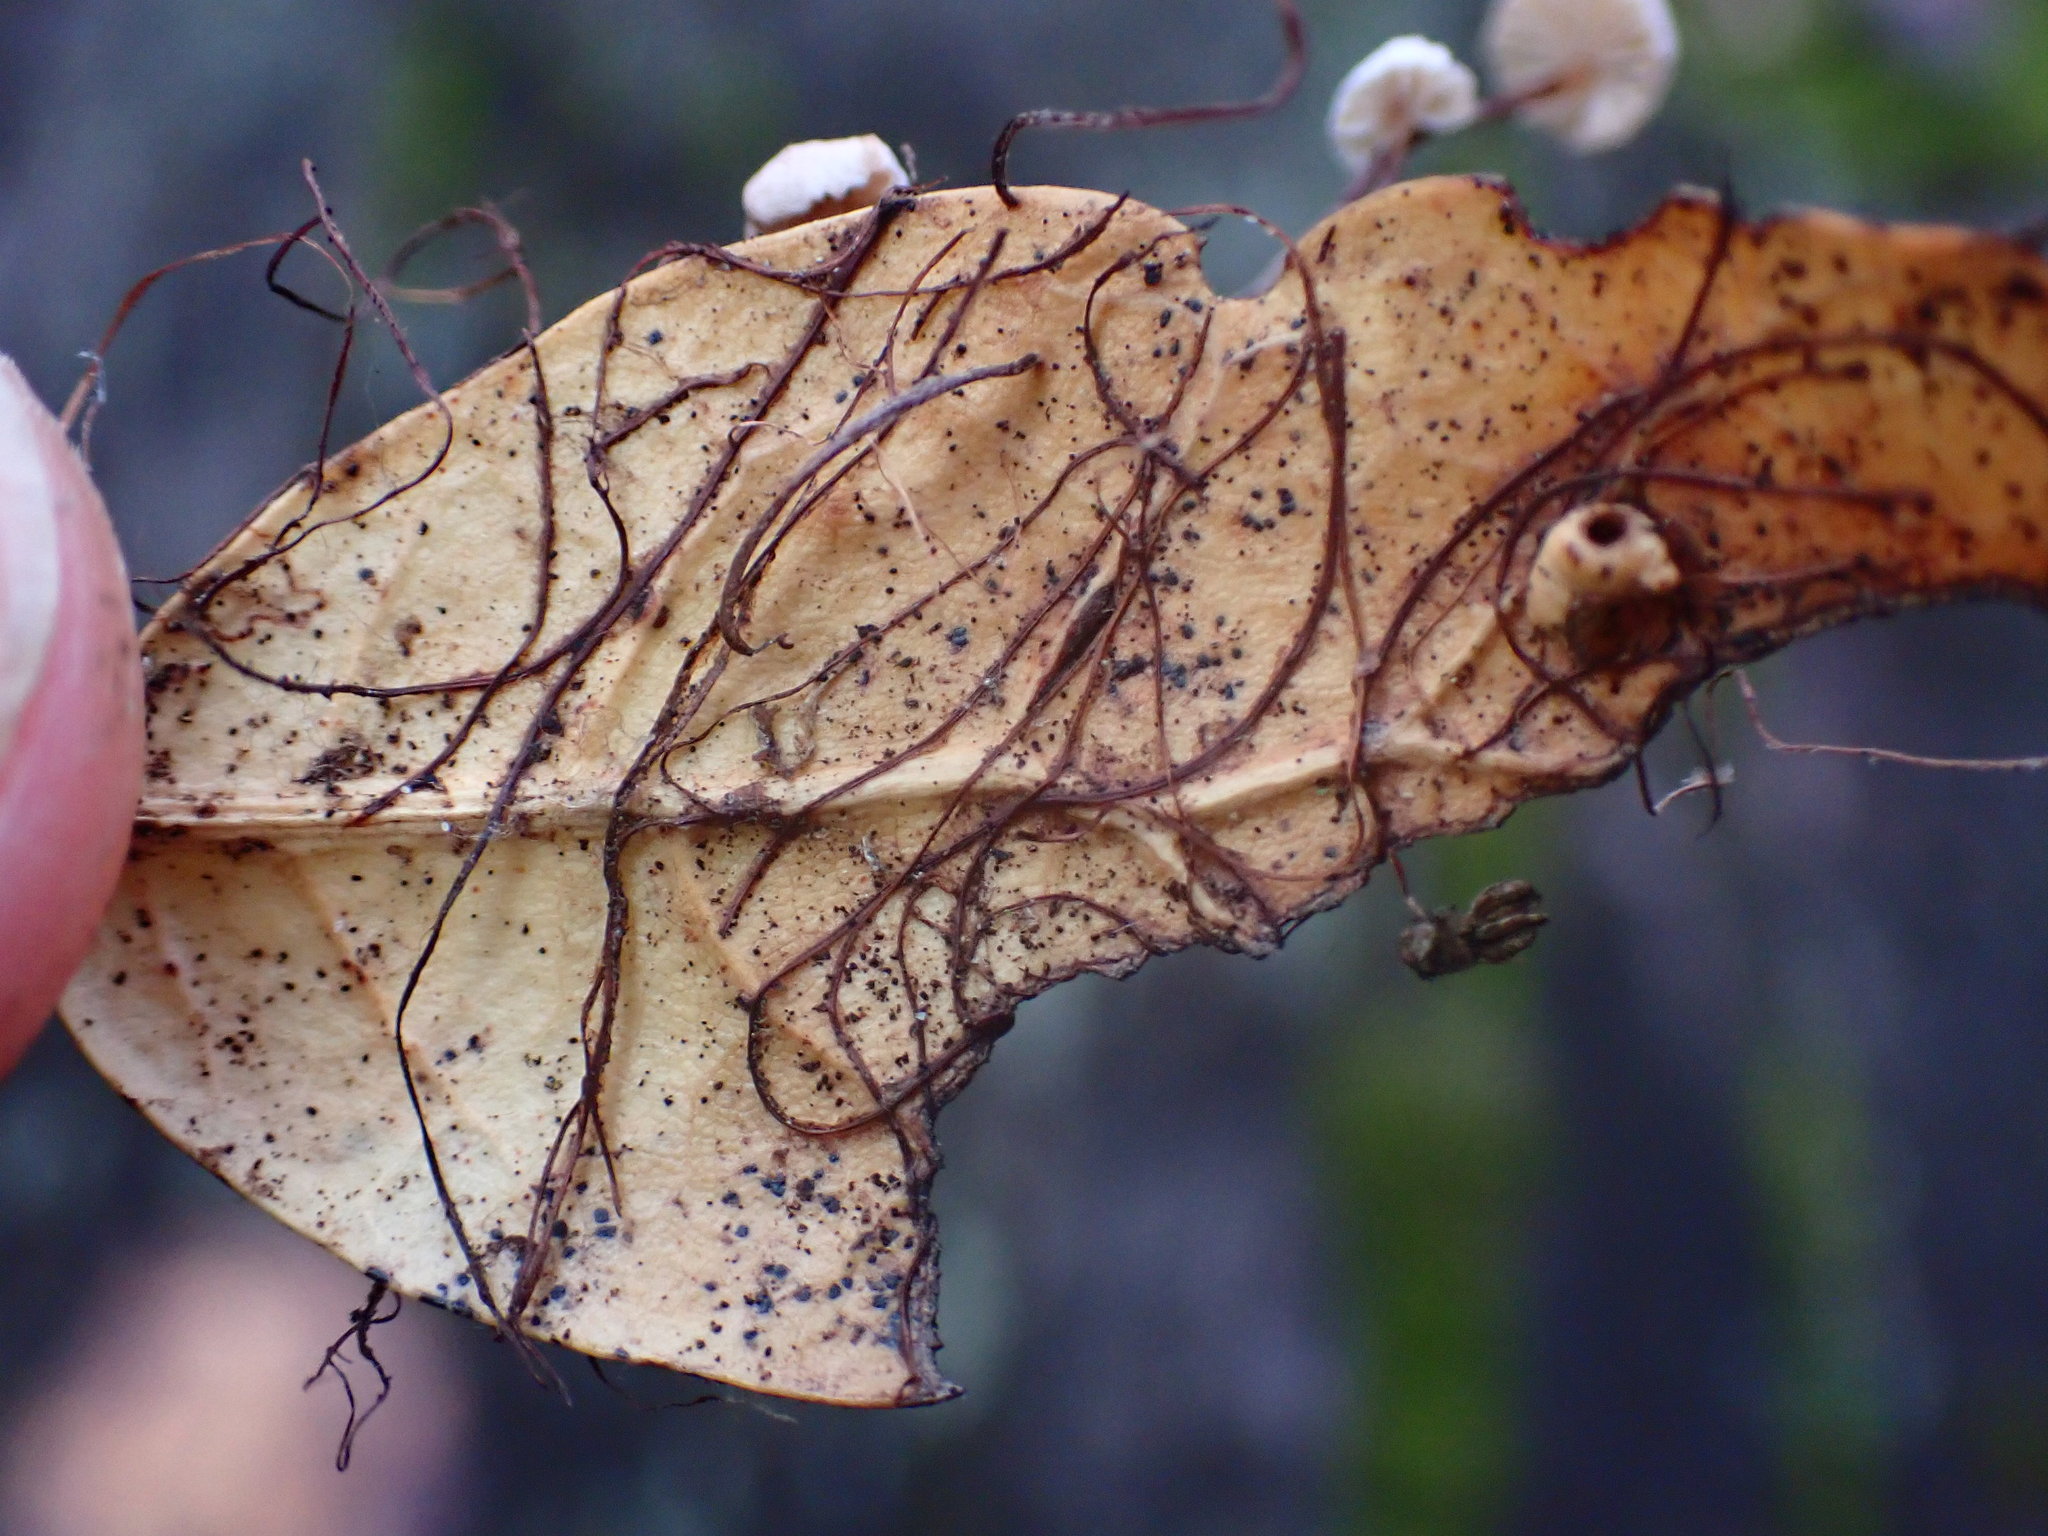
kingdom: Fungi
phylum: Basidiomycota
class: Agaricomycetes
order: Agaricales
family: Omphalotaceae
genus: Collybiopsis
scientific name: Collybiopsis quercophila
